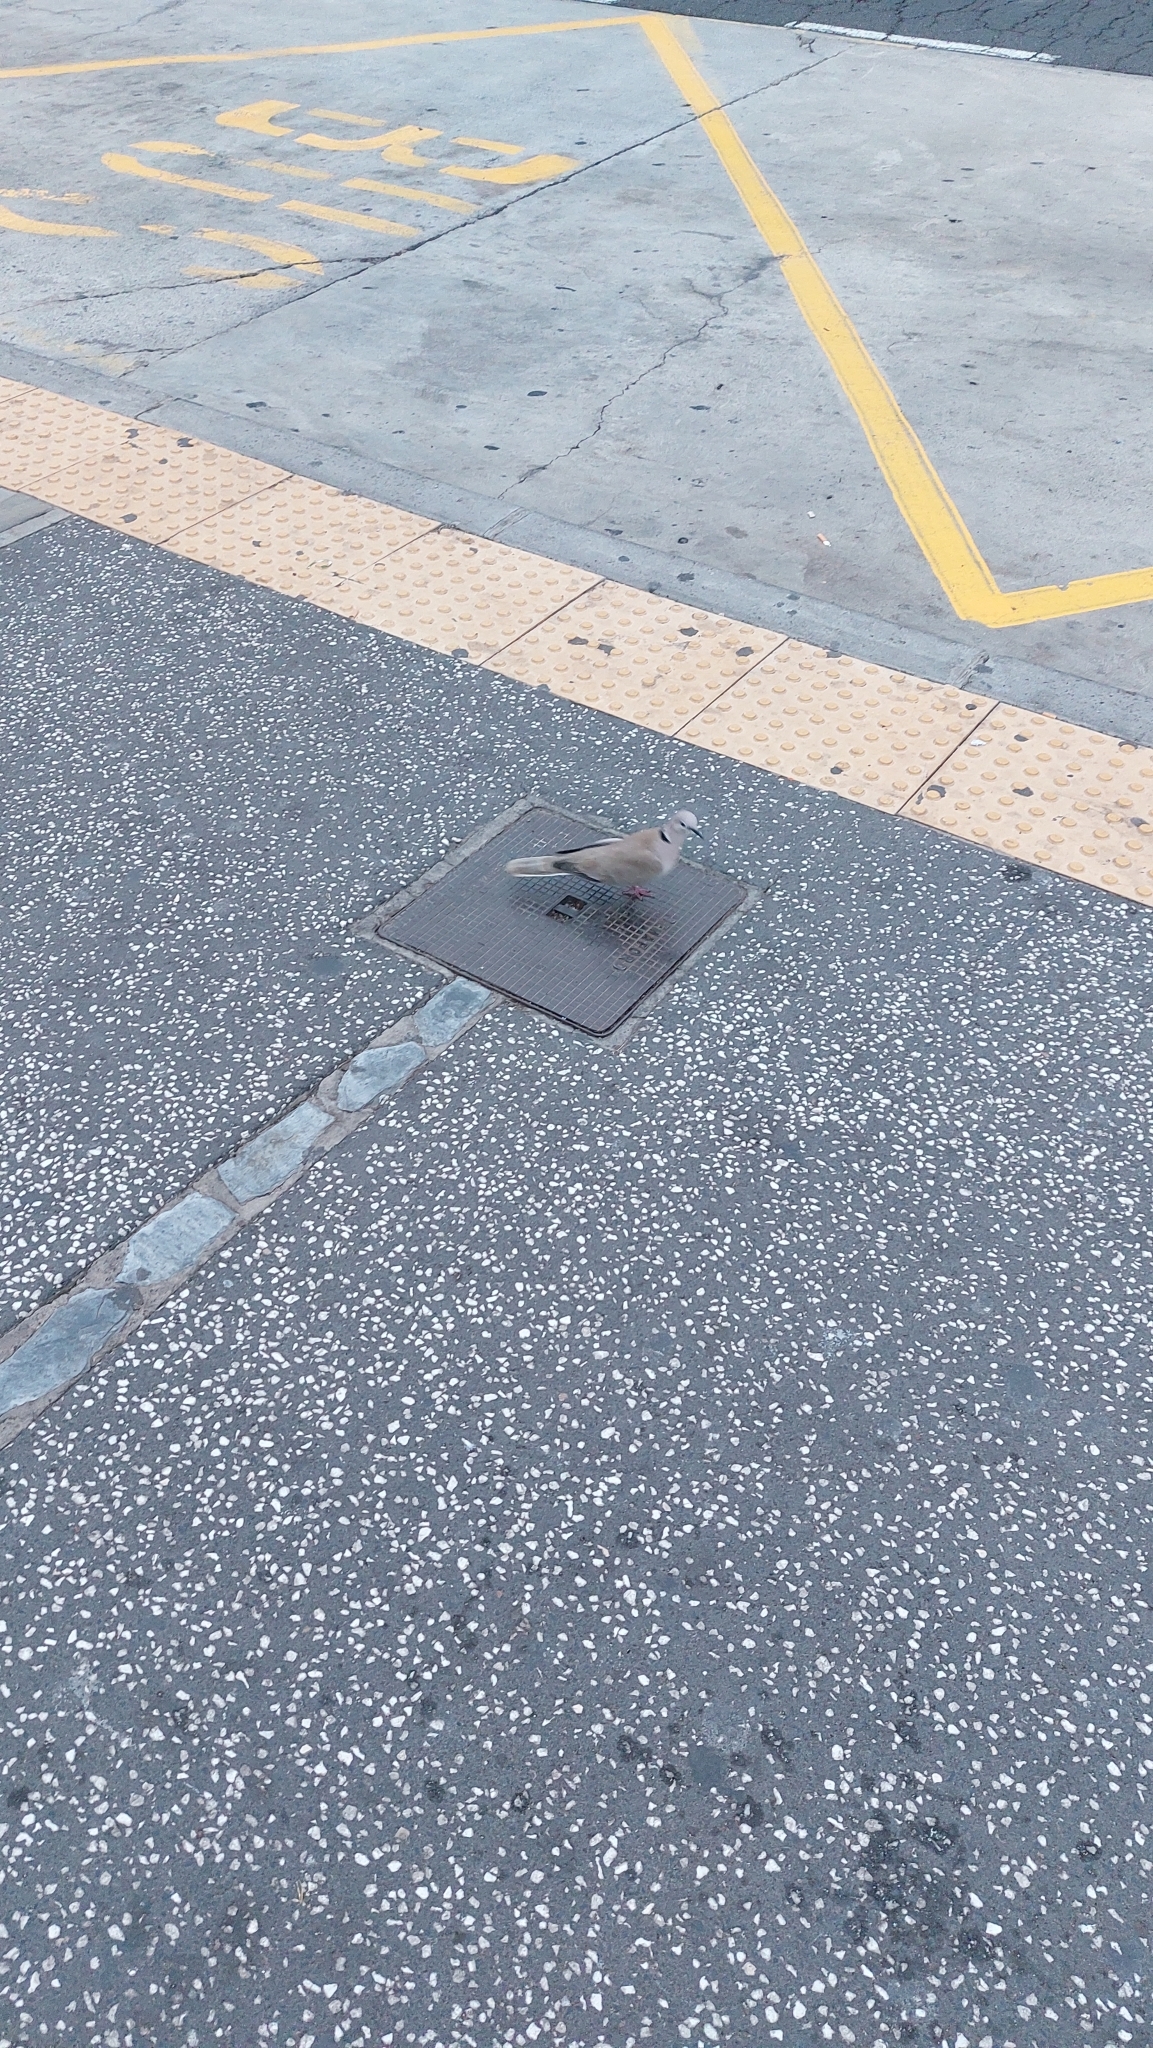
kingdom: Animalia
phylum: Chordata
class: Aves
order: Columbiformes
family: Columbidae
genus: Streptopelia
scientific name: Streptopelia decaocto
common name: Eurasian collared dove
